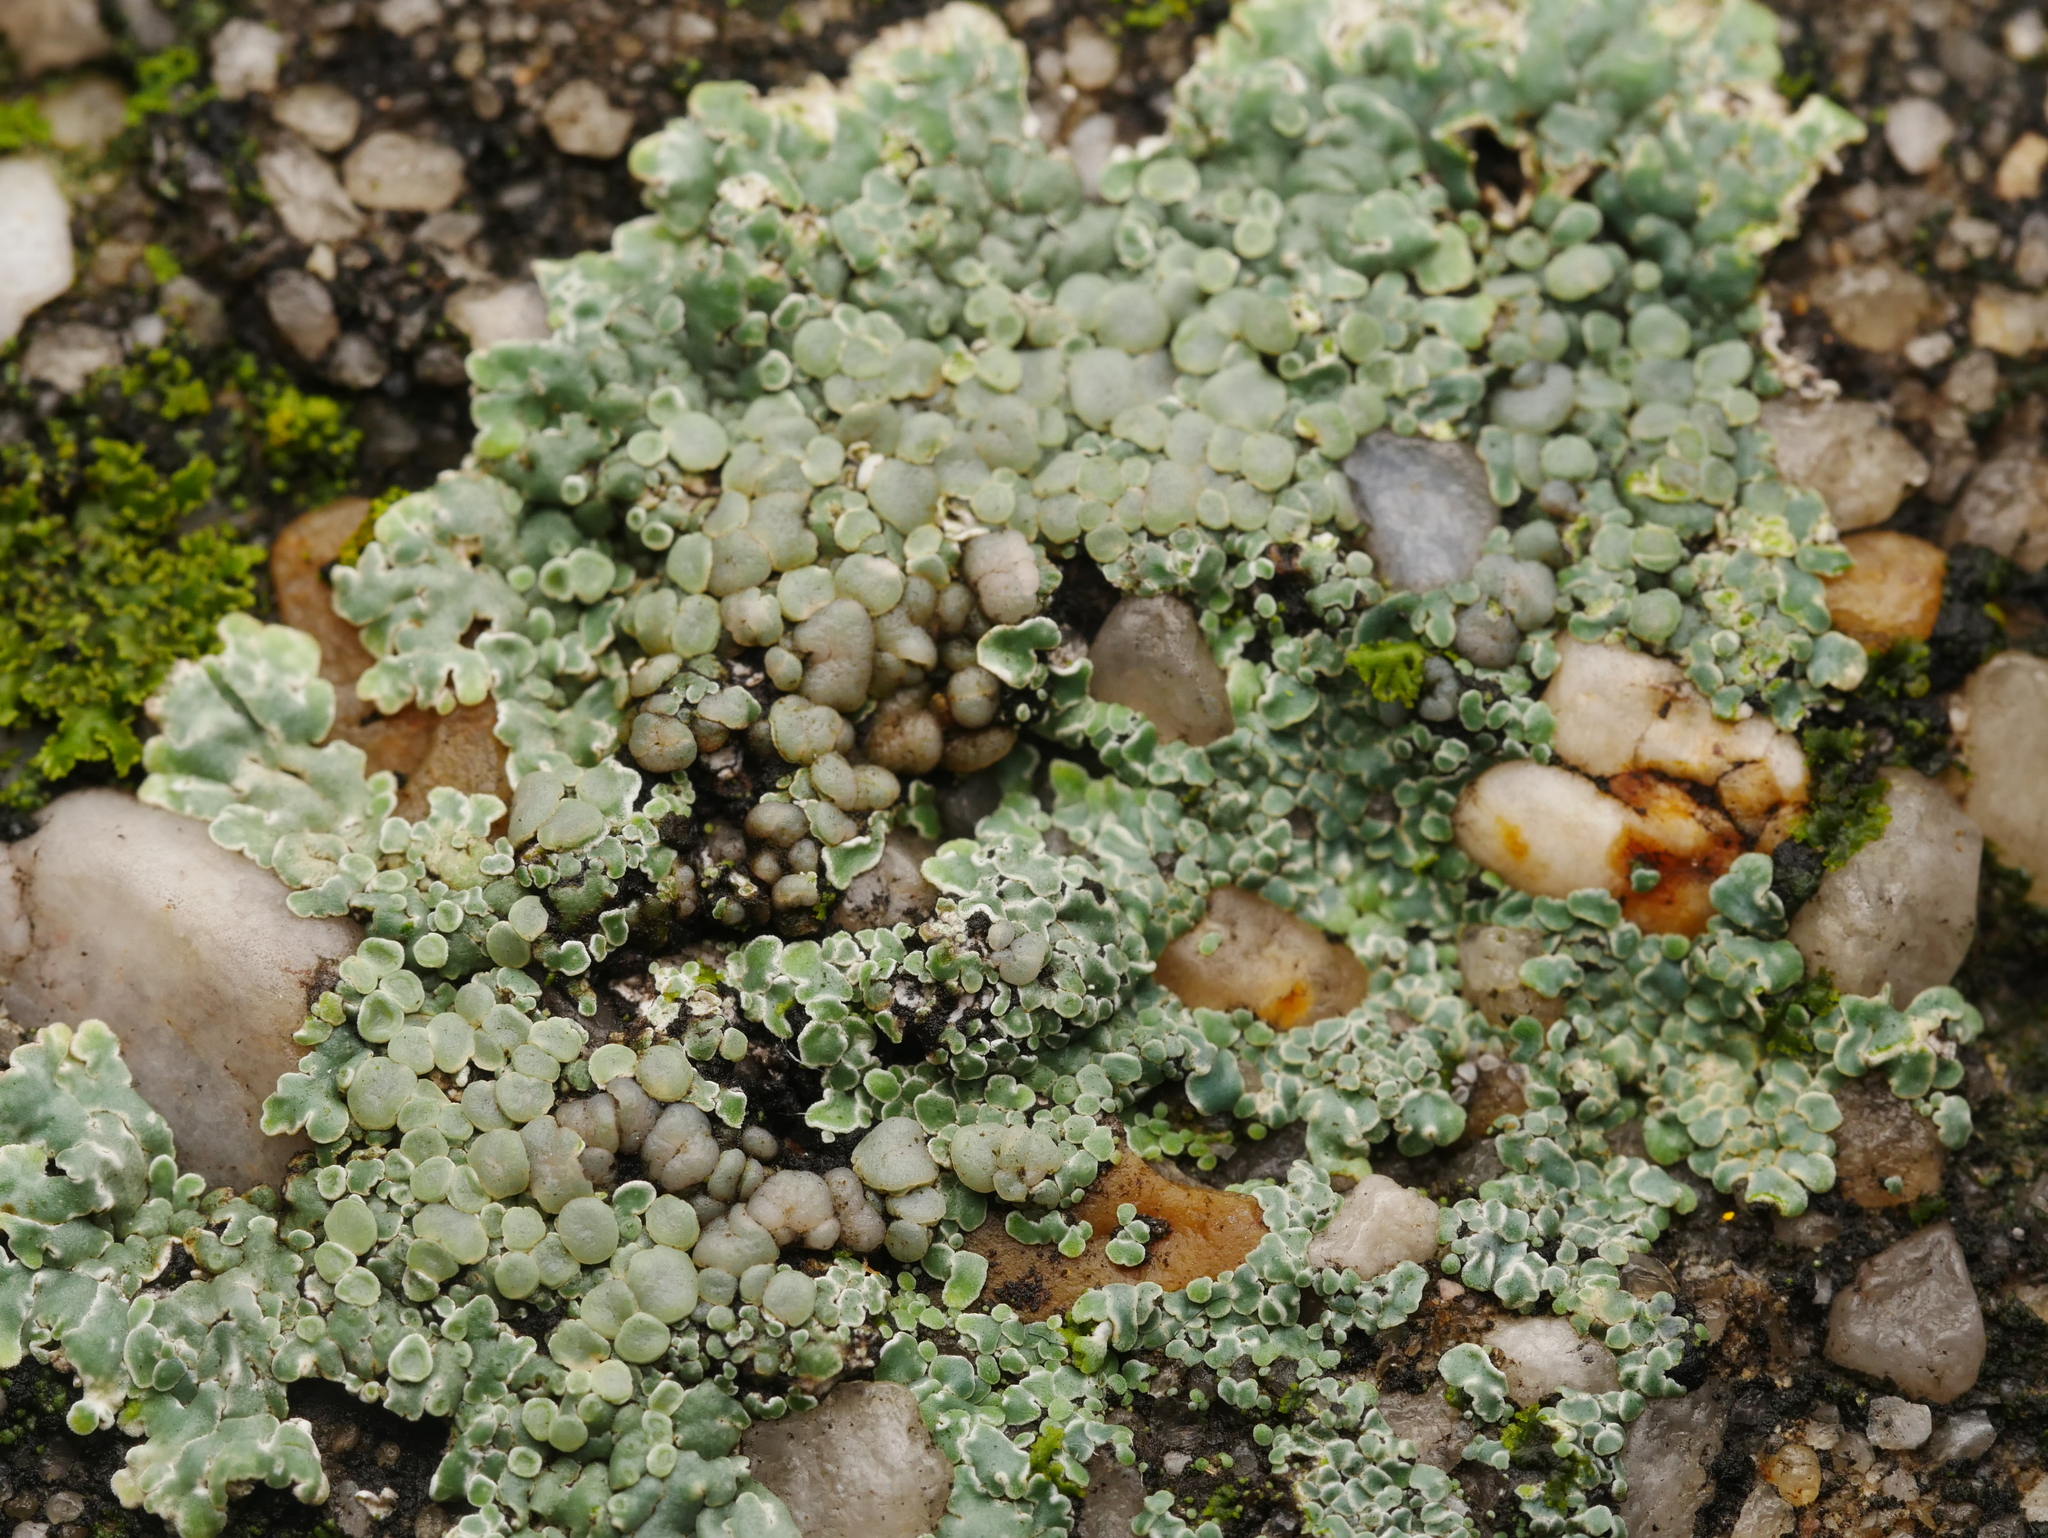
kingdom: Fungi
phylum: Ascomycota
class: Lecanoromycetes
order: Lecanorales
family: Lecanoraceae
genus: Protoparmeliopsis
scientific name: Protoparmeliopsis muralis
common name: Stonewall rim lichen
